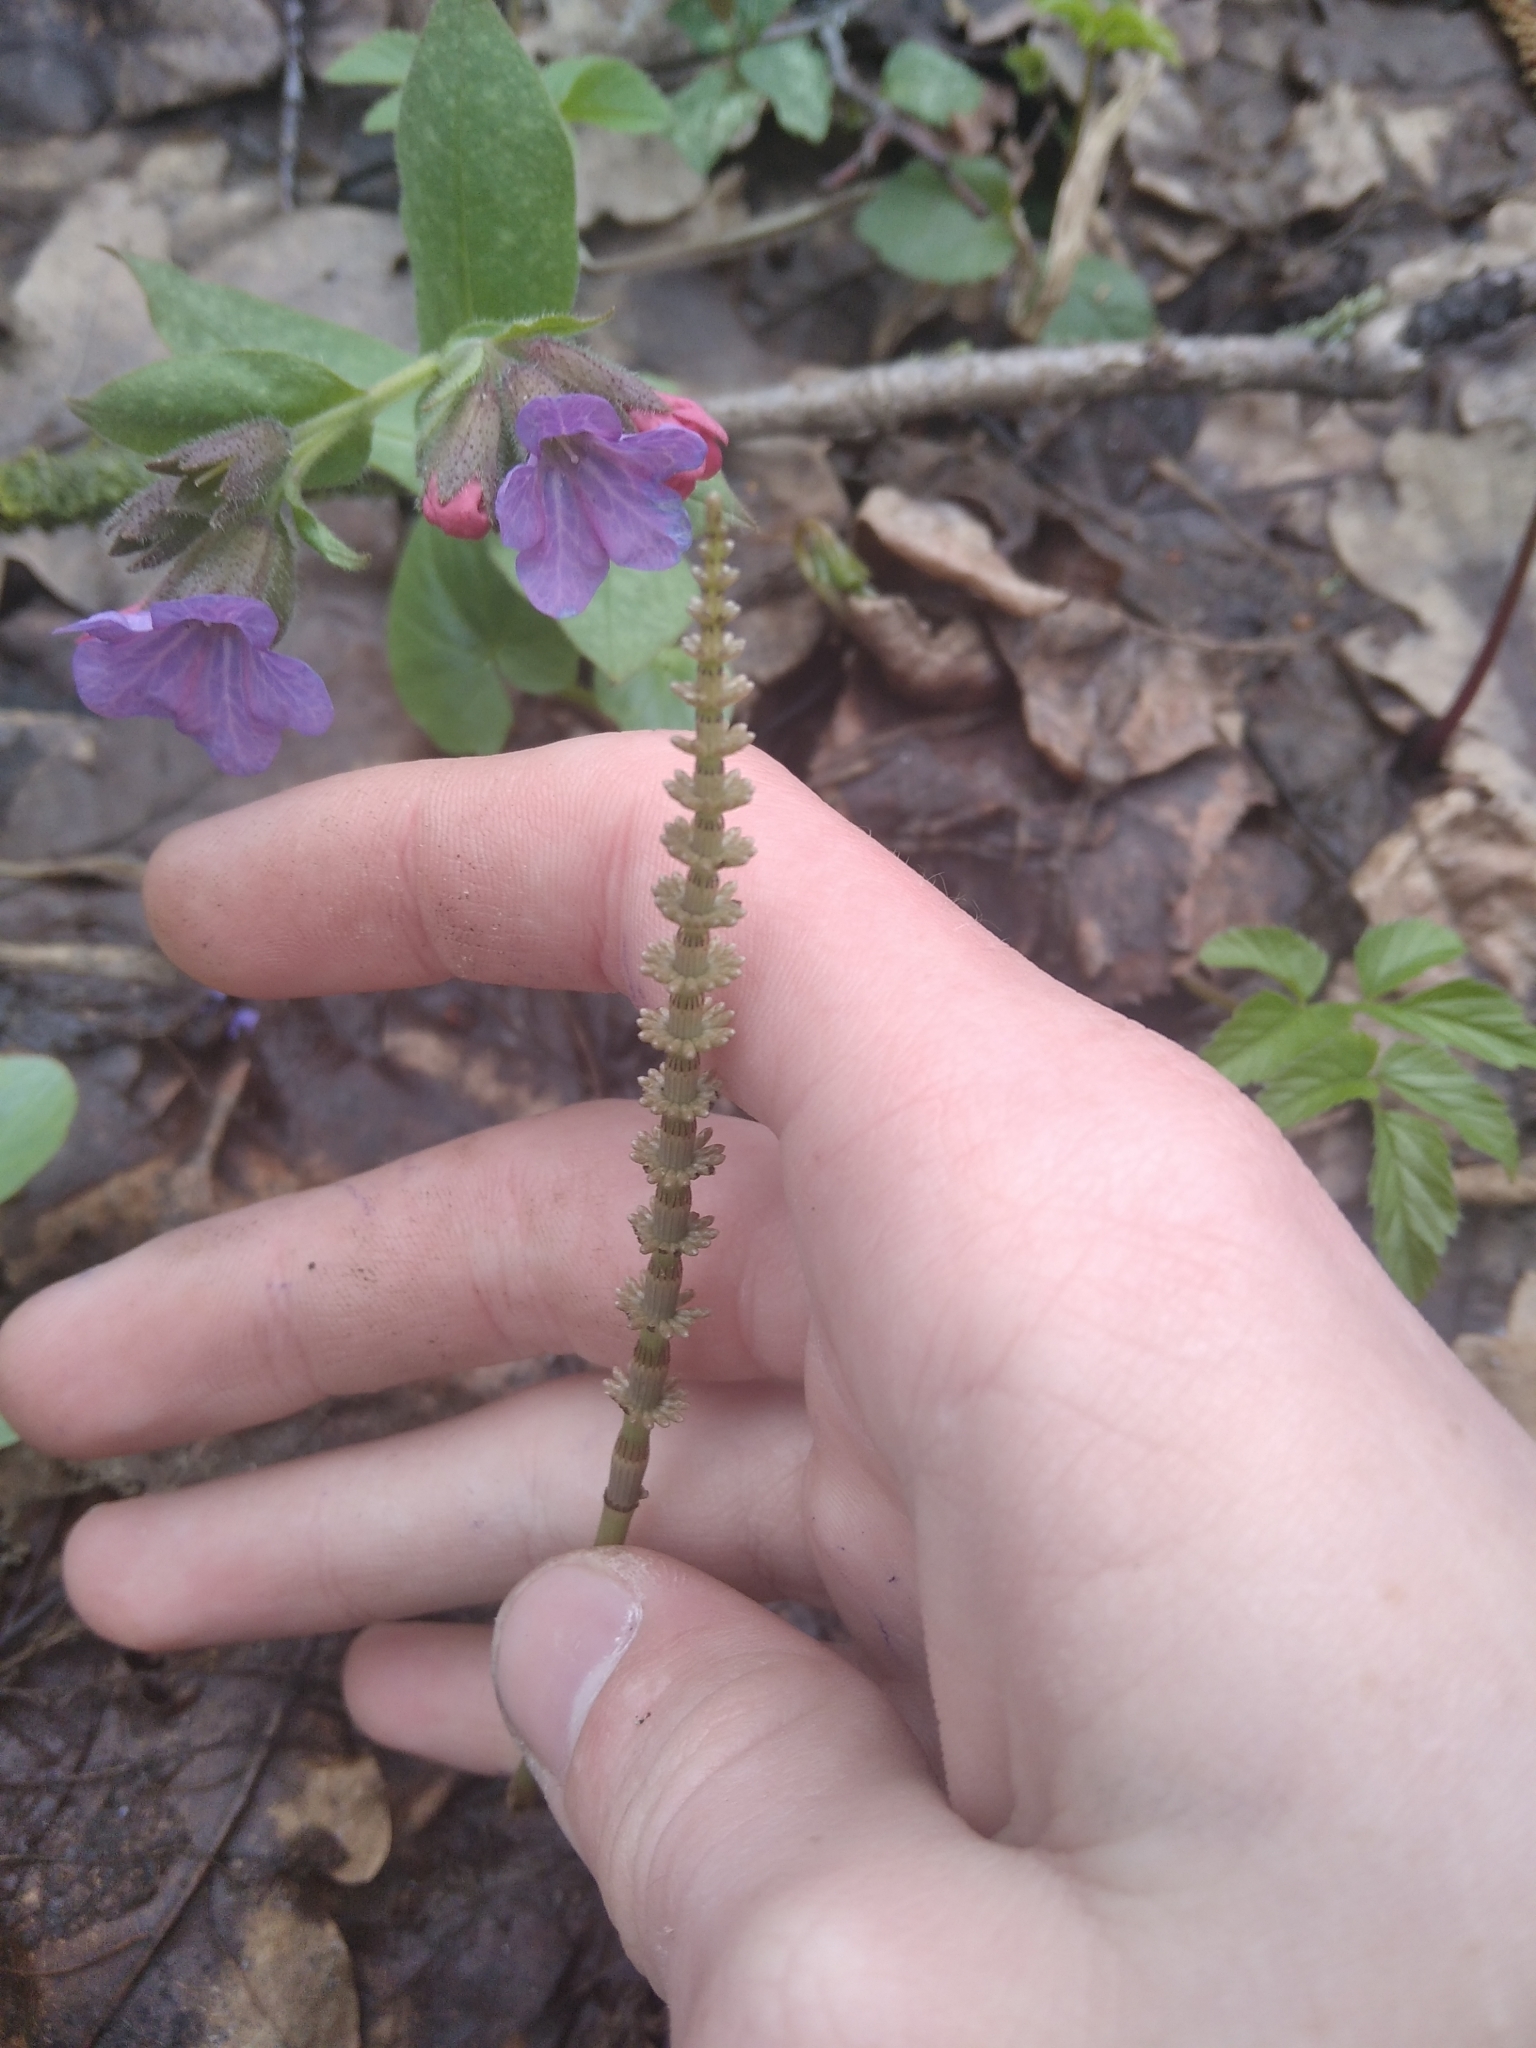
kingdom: Plantae
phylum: Tracheophyta
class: Polypodiopsida
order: Equisetales
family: Equisetaceae
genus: Equisetum
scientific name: Equisetum pratense
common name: Meadow horsetail
